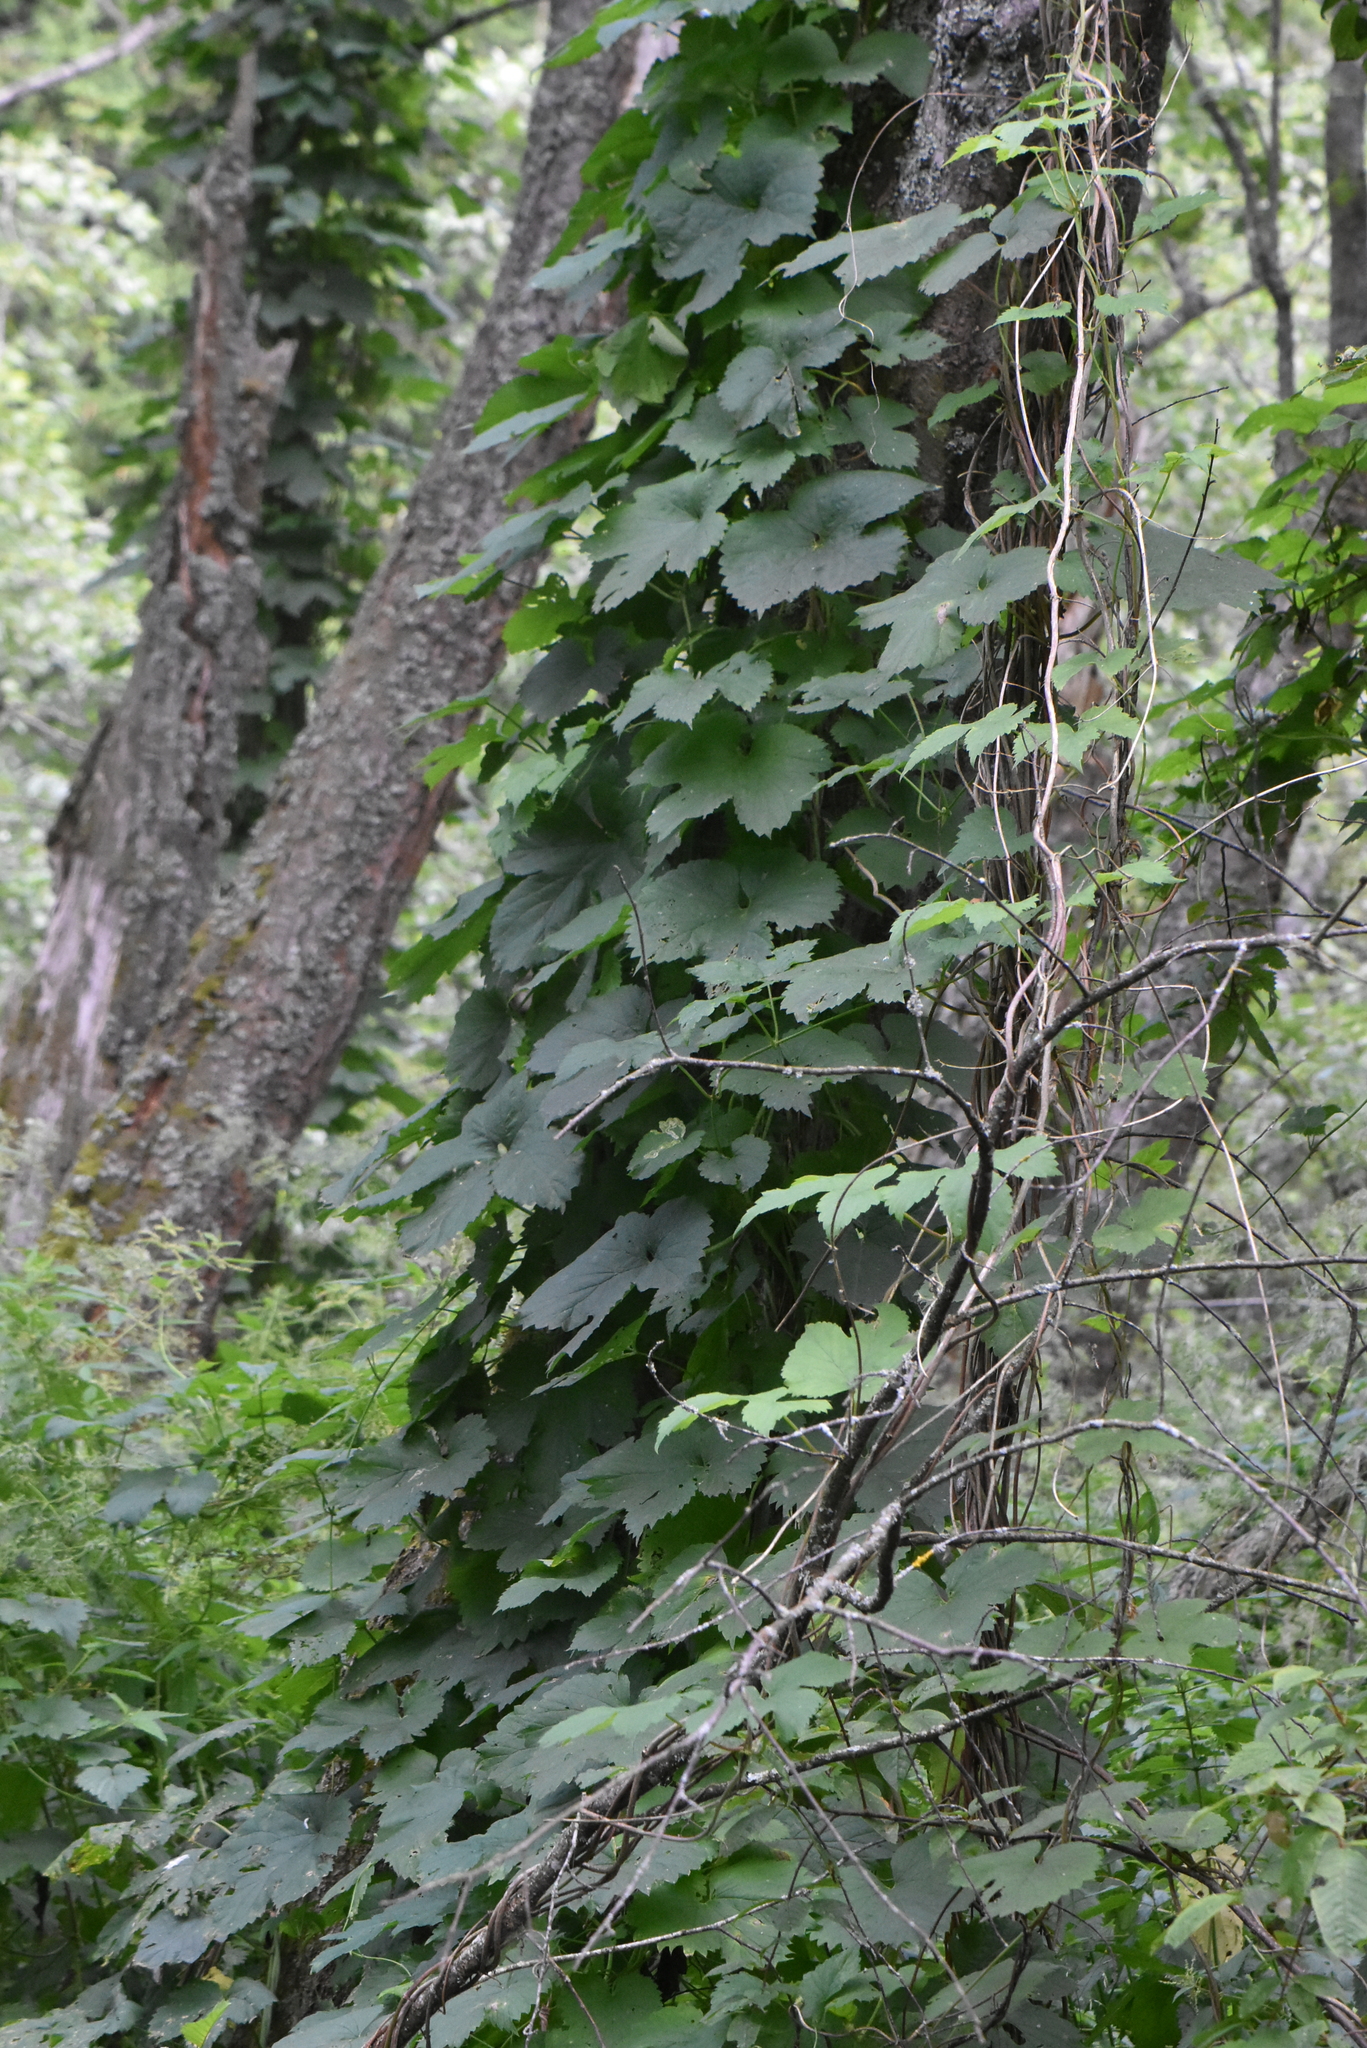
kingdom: Plantae
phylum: Tracheophyta
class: Magnoliopsida
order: Rosales
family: Cannabaceae
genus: Humulus
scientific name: Humulus lupulus
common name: Hop
